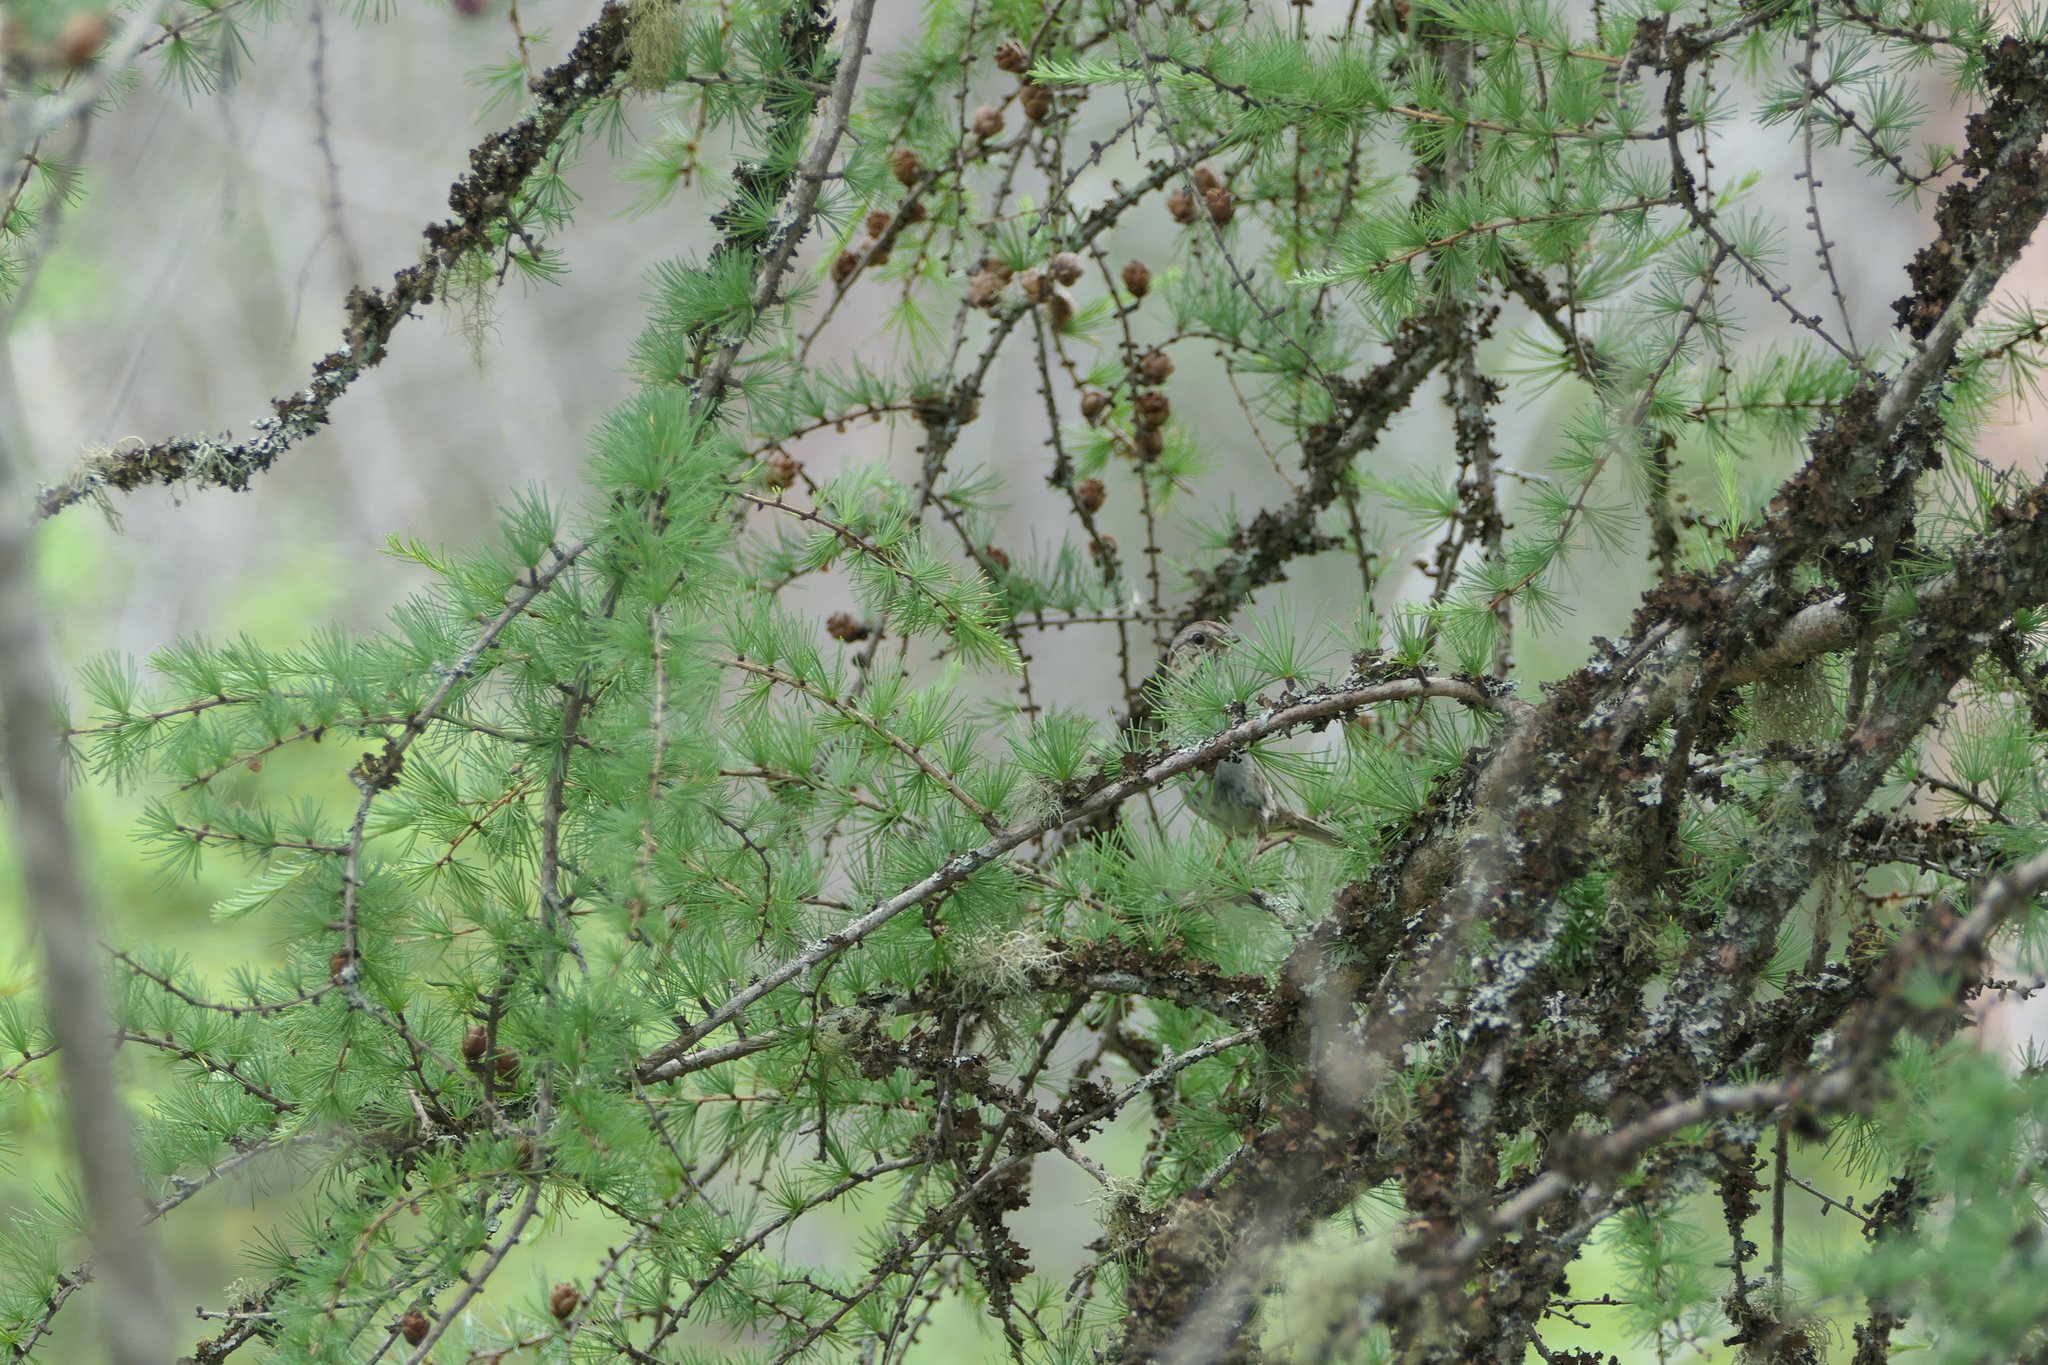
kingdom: Plantae
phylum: Tracheophyta
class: Pinopsida
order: Pinales
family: Pinaceae
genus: Larix
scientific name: Larix laricina
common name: American larch
